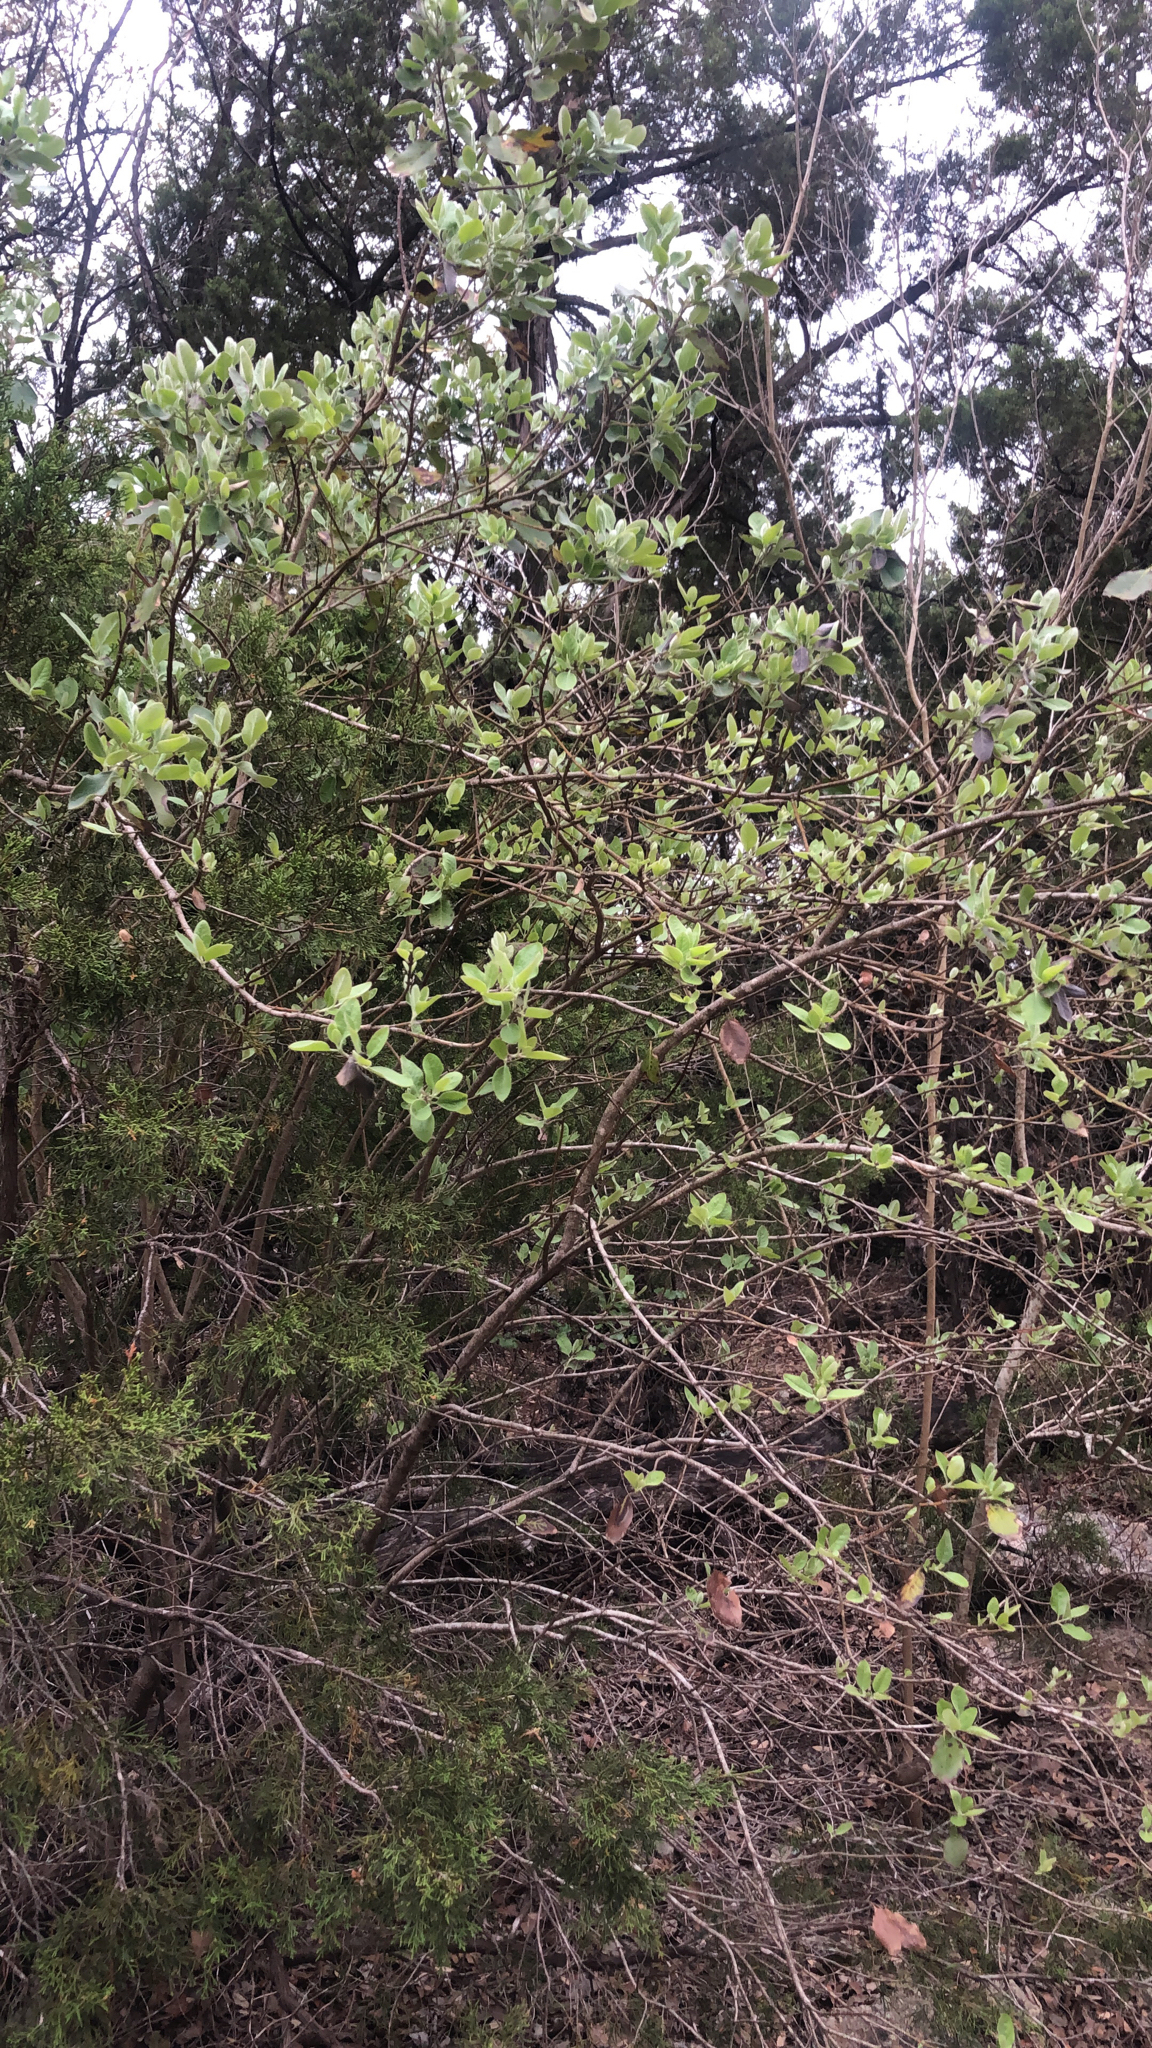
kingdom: Plantae
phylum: Tracheophyta
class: Magnoliopsida
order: Lamiales
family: Verbenaceae
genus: Aloysia
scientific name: Aloysia gratissima
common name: Common bee-brush
